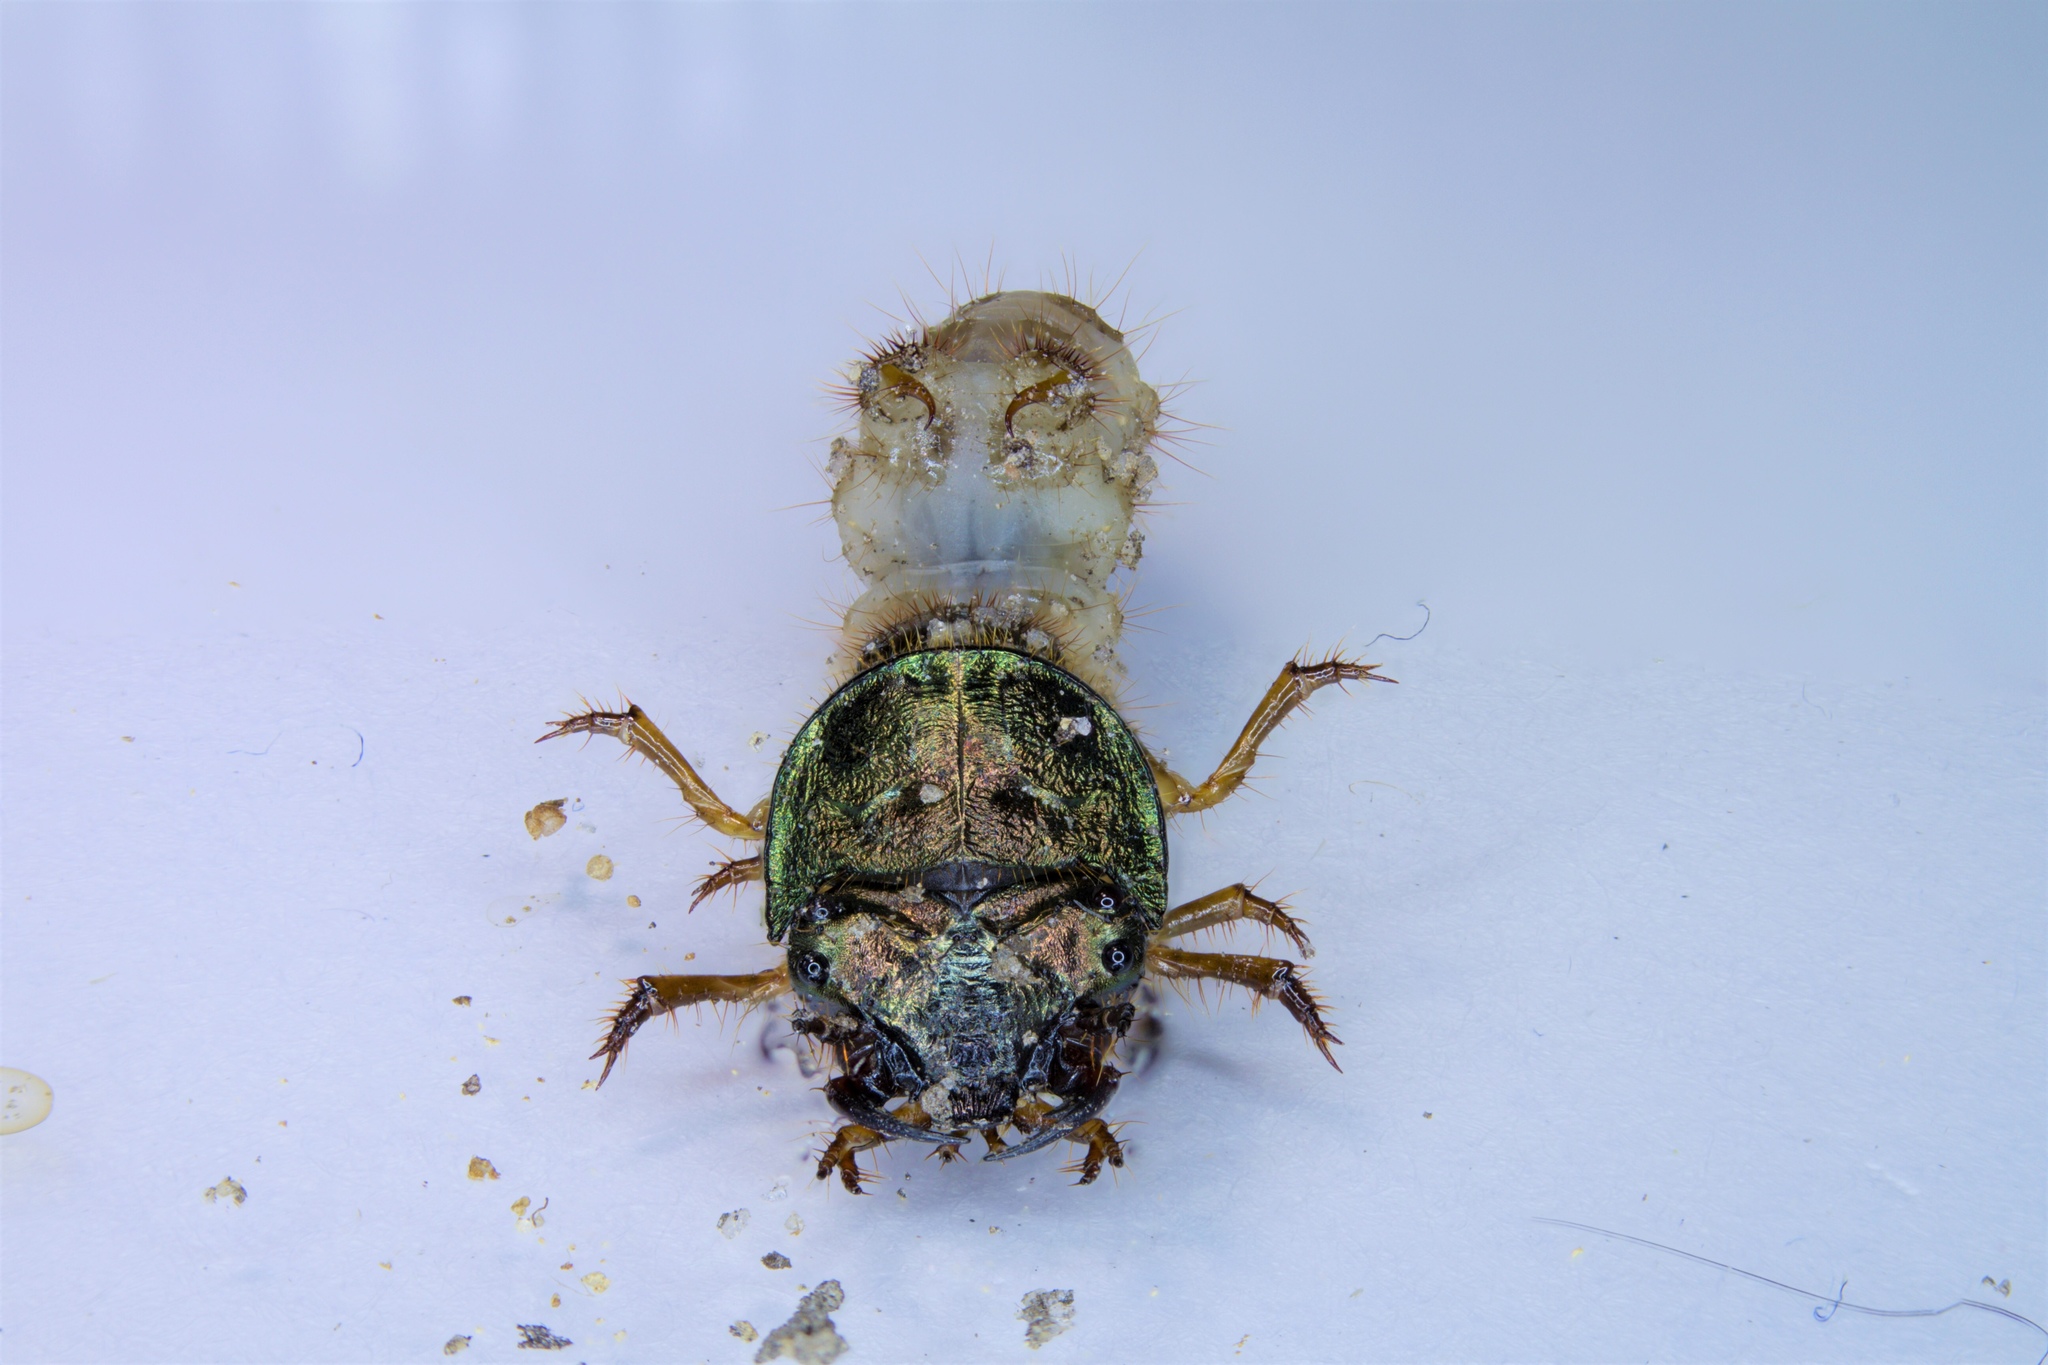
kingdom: Animalia
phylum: Arthropoda
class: Insecta
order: Coleoptera
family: Carabidae
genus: Cylindera
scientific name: Cylindera unipunctata
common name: One-spotted tiger beetle
